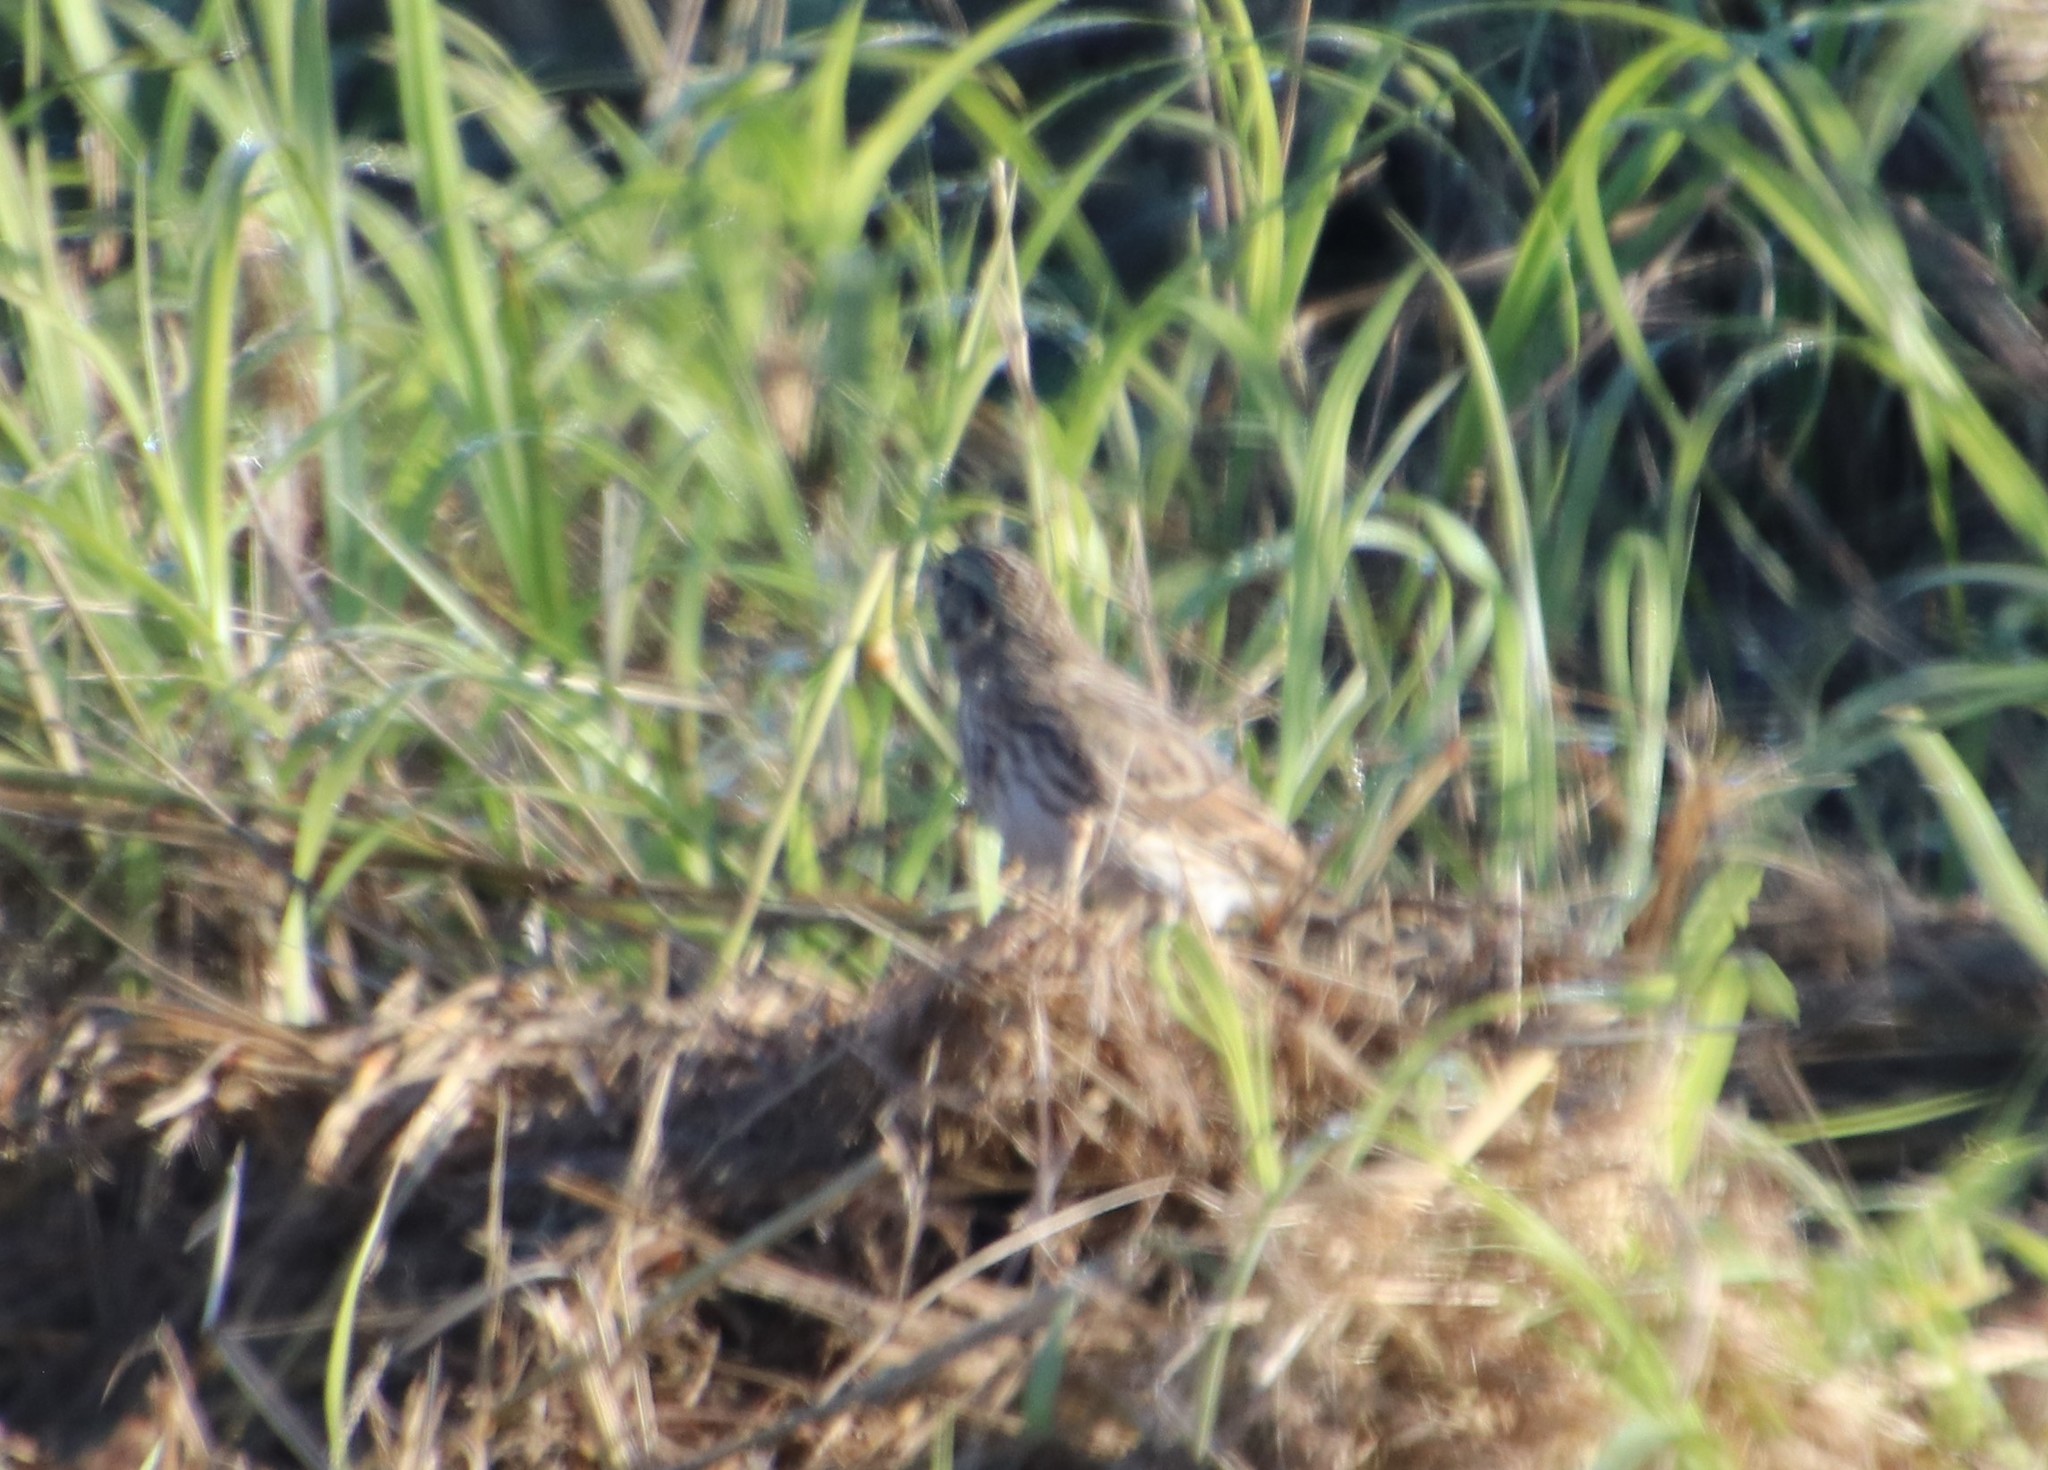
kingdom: Animalia
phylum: Chordata
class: Aves
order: Passeriformes
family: Passerellidae
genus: Passerculus
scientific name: Passerculus sandwichensis
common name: Savannah sparrow
